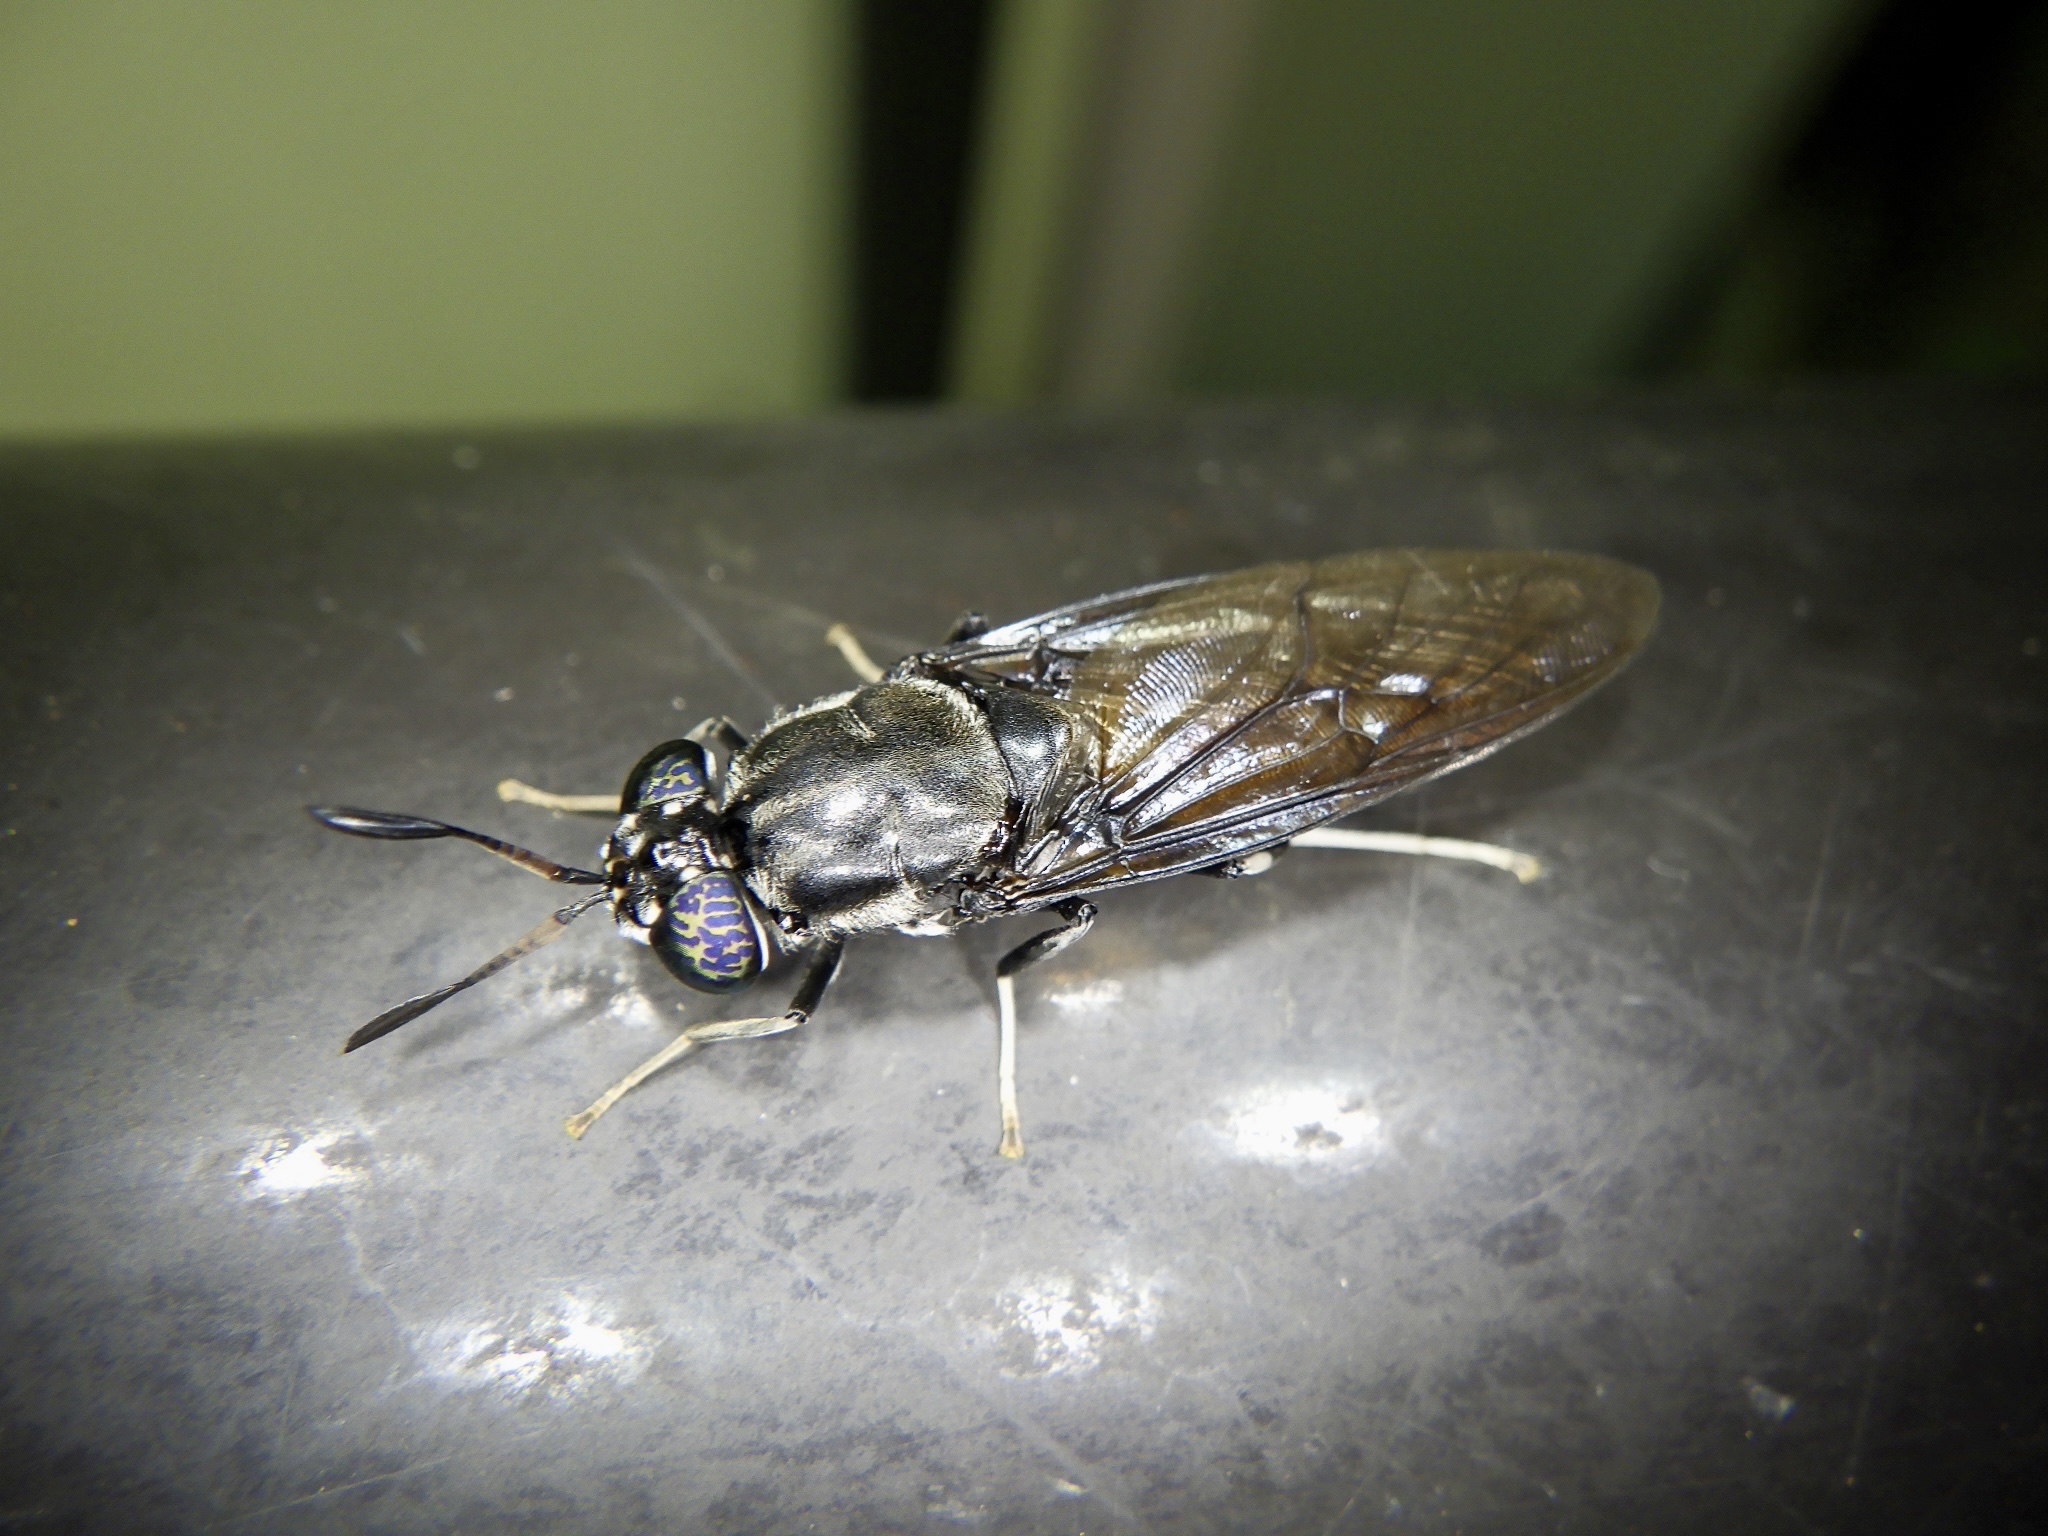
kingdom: Animalia
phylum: Arthropoda
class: Insecta
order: Diptera
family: Stratiomyidae
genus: Hermetia
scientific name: Hermetia illucens
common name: Black soldier fly
